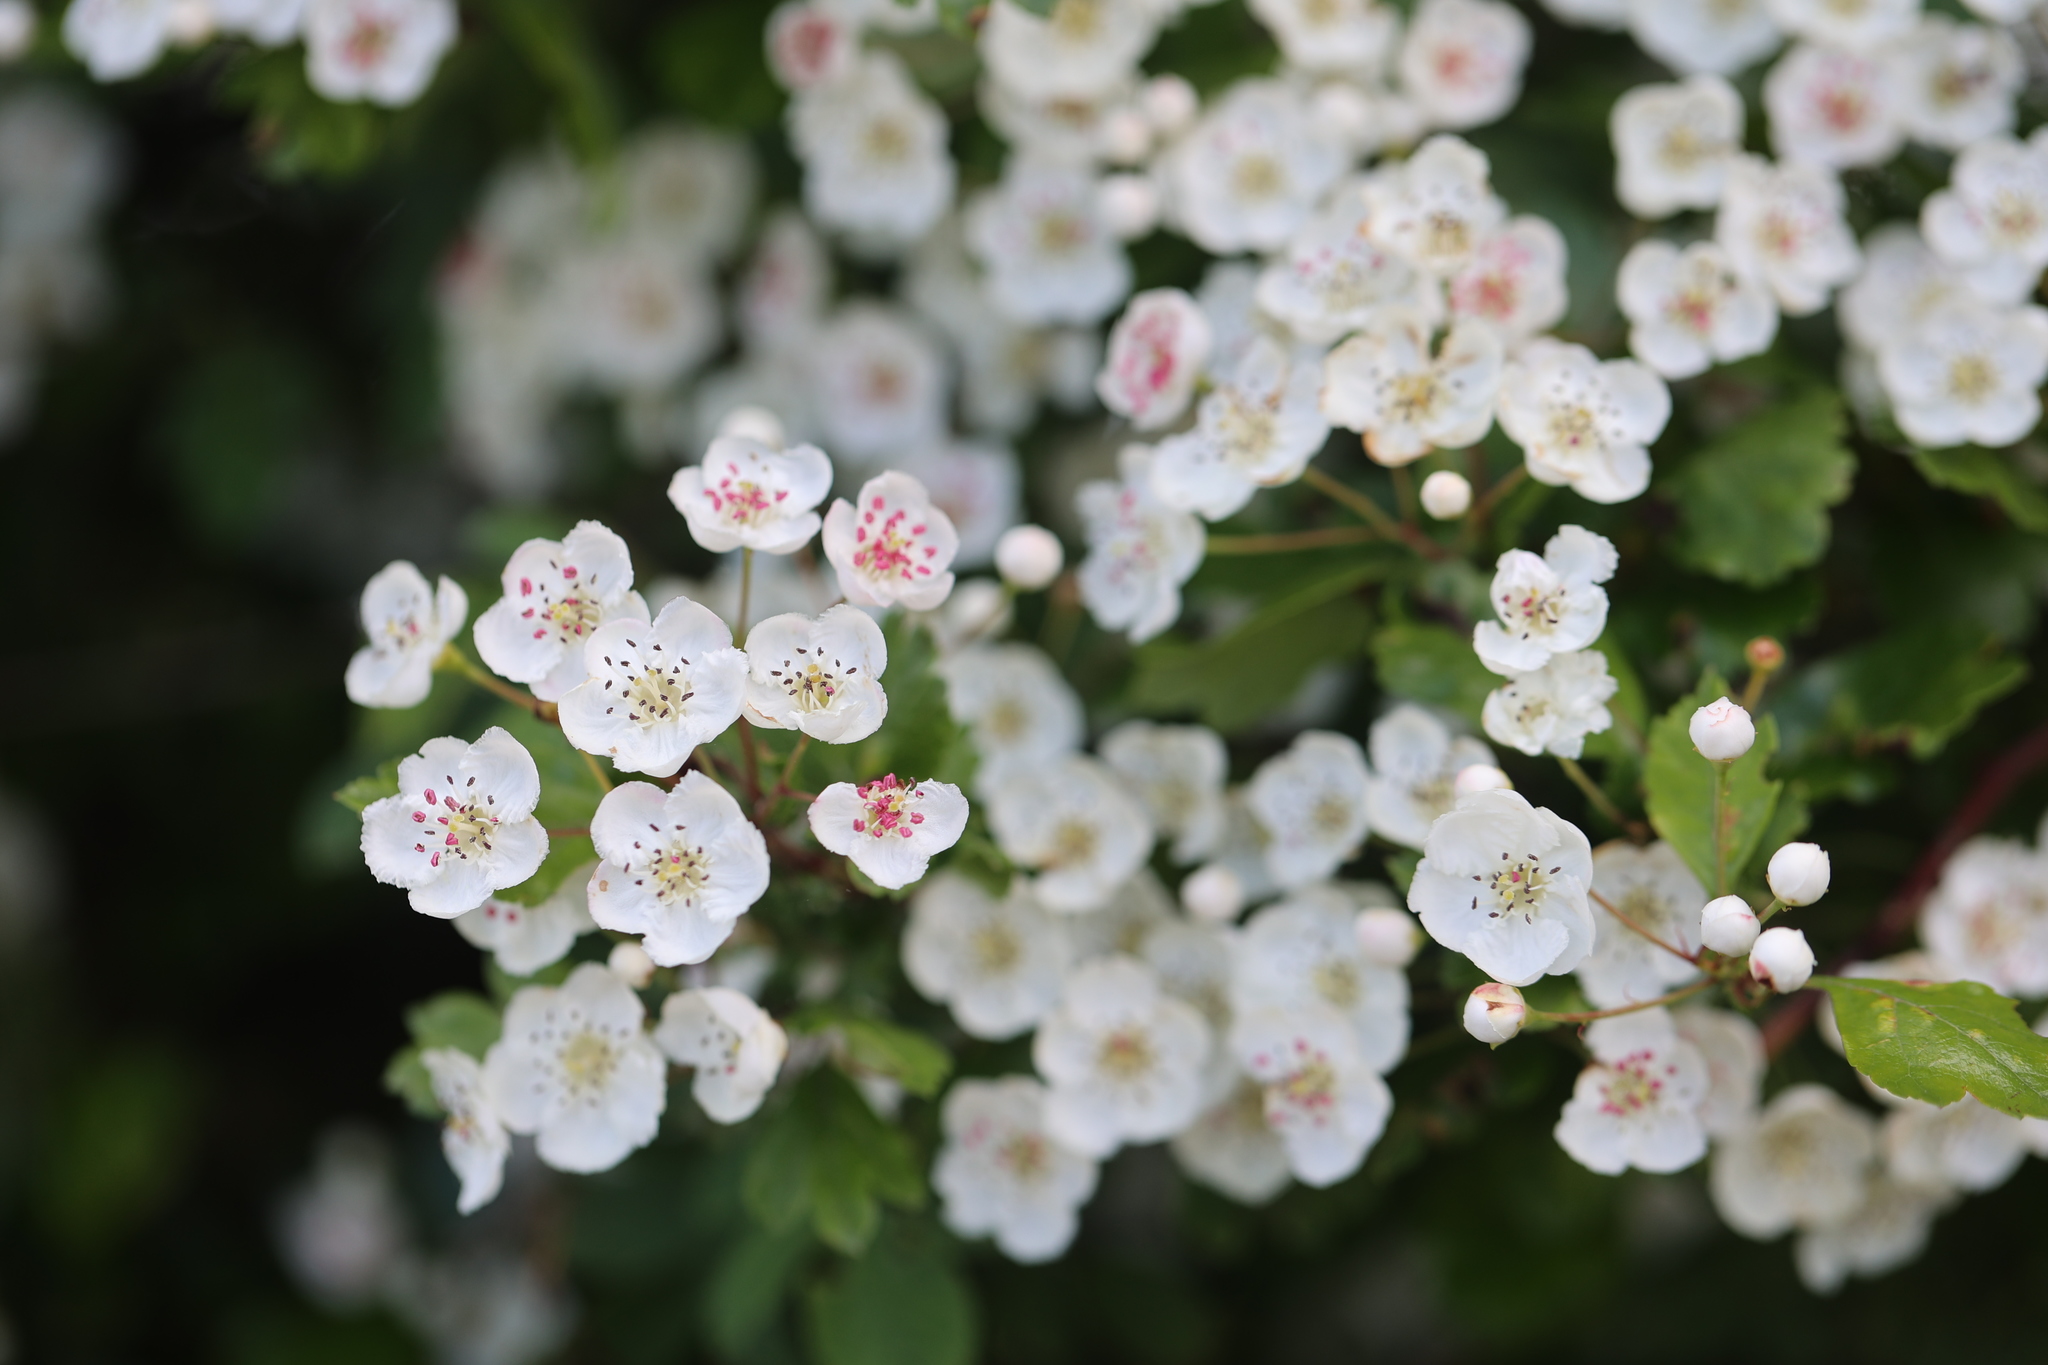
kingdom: Plantae
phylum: Tracheophyta
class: Magnoliopsida
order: Rosales
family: Rosaceae
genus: Crataegus
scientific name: Crataegus laevigata
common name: Midland hawthorn
